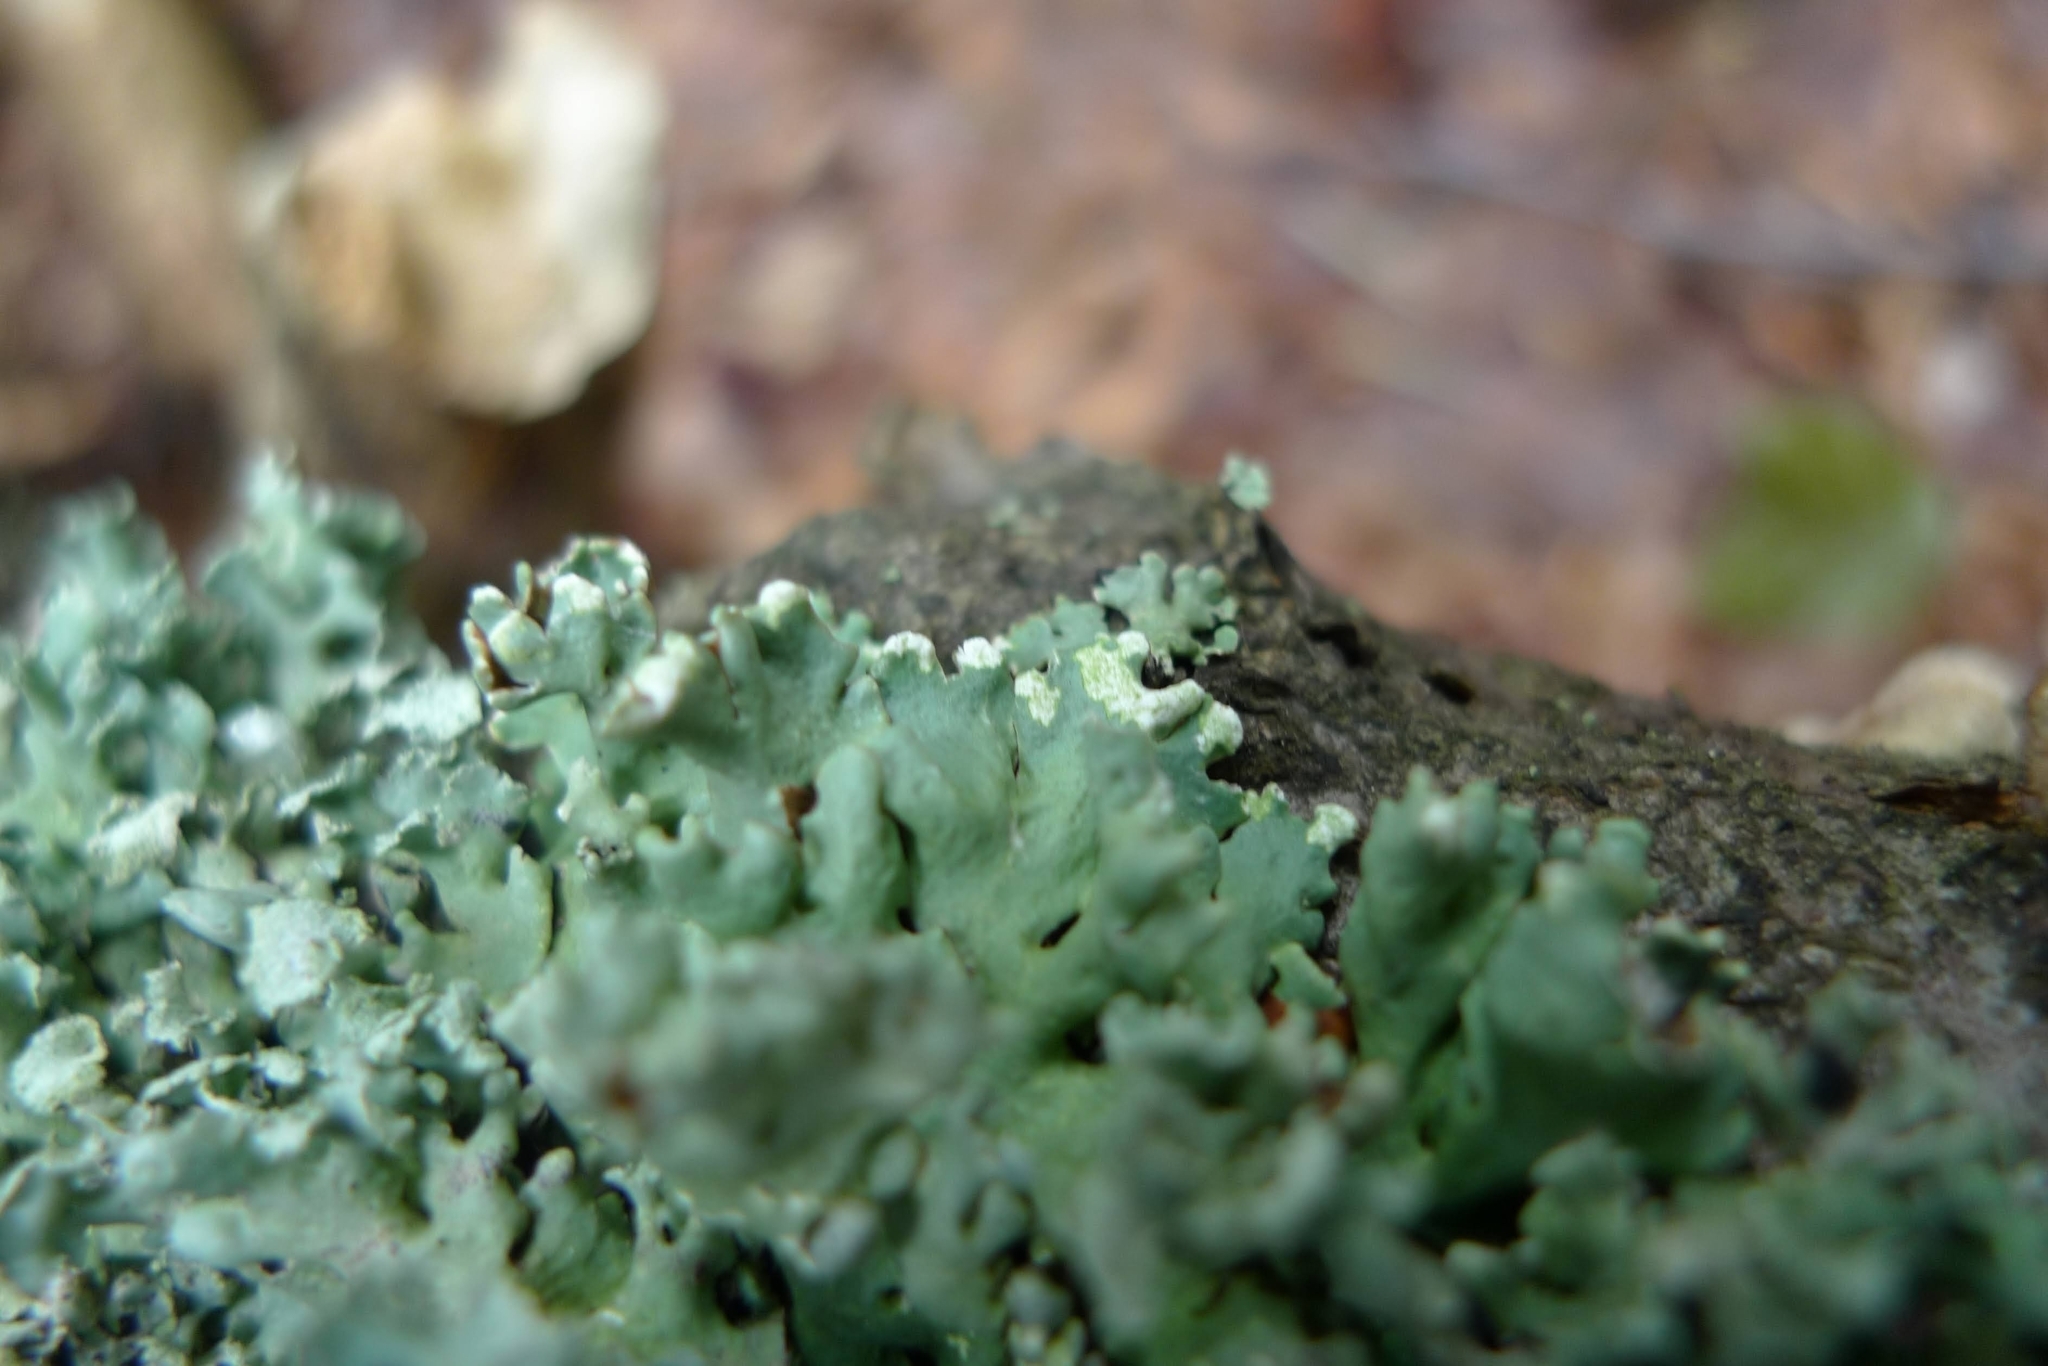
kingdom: Fungi
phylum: Ascomycota
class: Lecanoromycetes
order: Lecanorales
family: Parmeliaceae
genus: Hypogymnia
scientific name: Hypogymnia physodes
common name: Dark crottle
